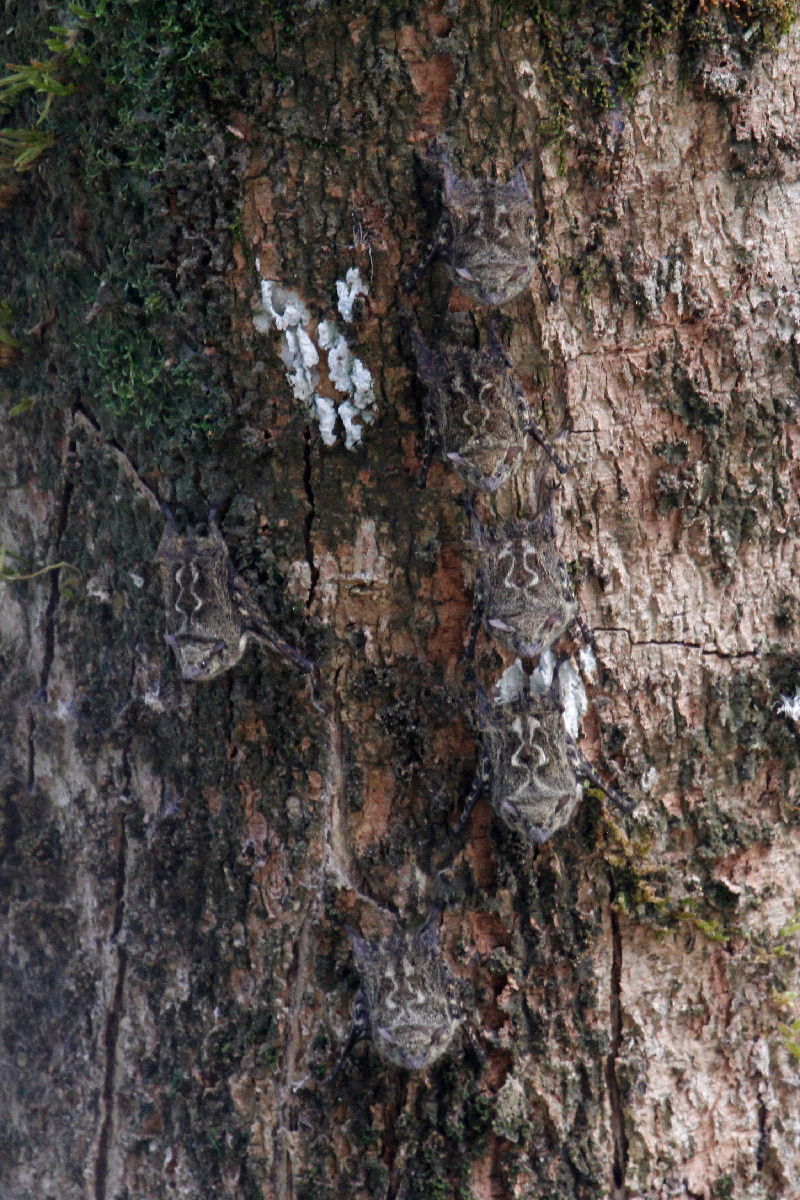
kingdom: Animalia
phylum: Chordata
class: Mammalia
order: Chiroptera
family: Emballonuridae
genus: Rhynchonycteris
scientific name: Rhynchonycteris naso
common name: Proboscis bat
